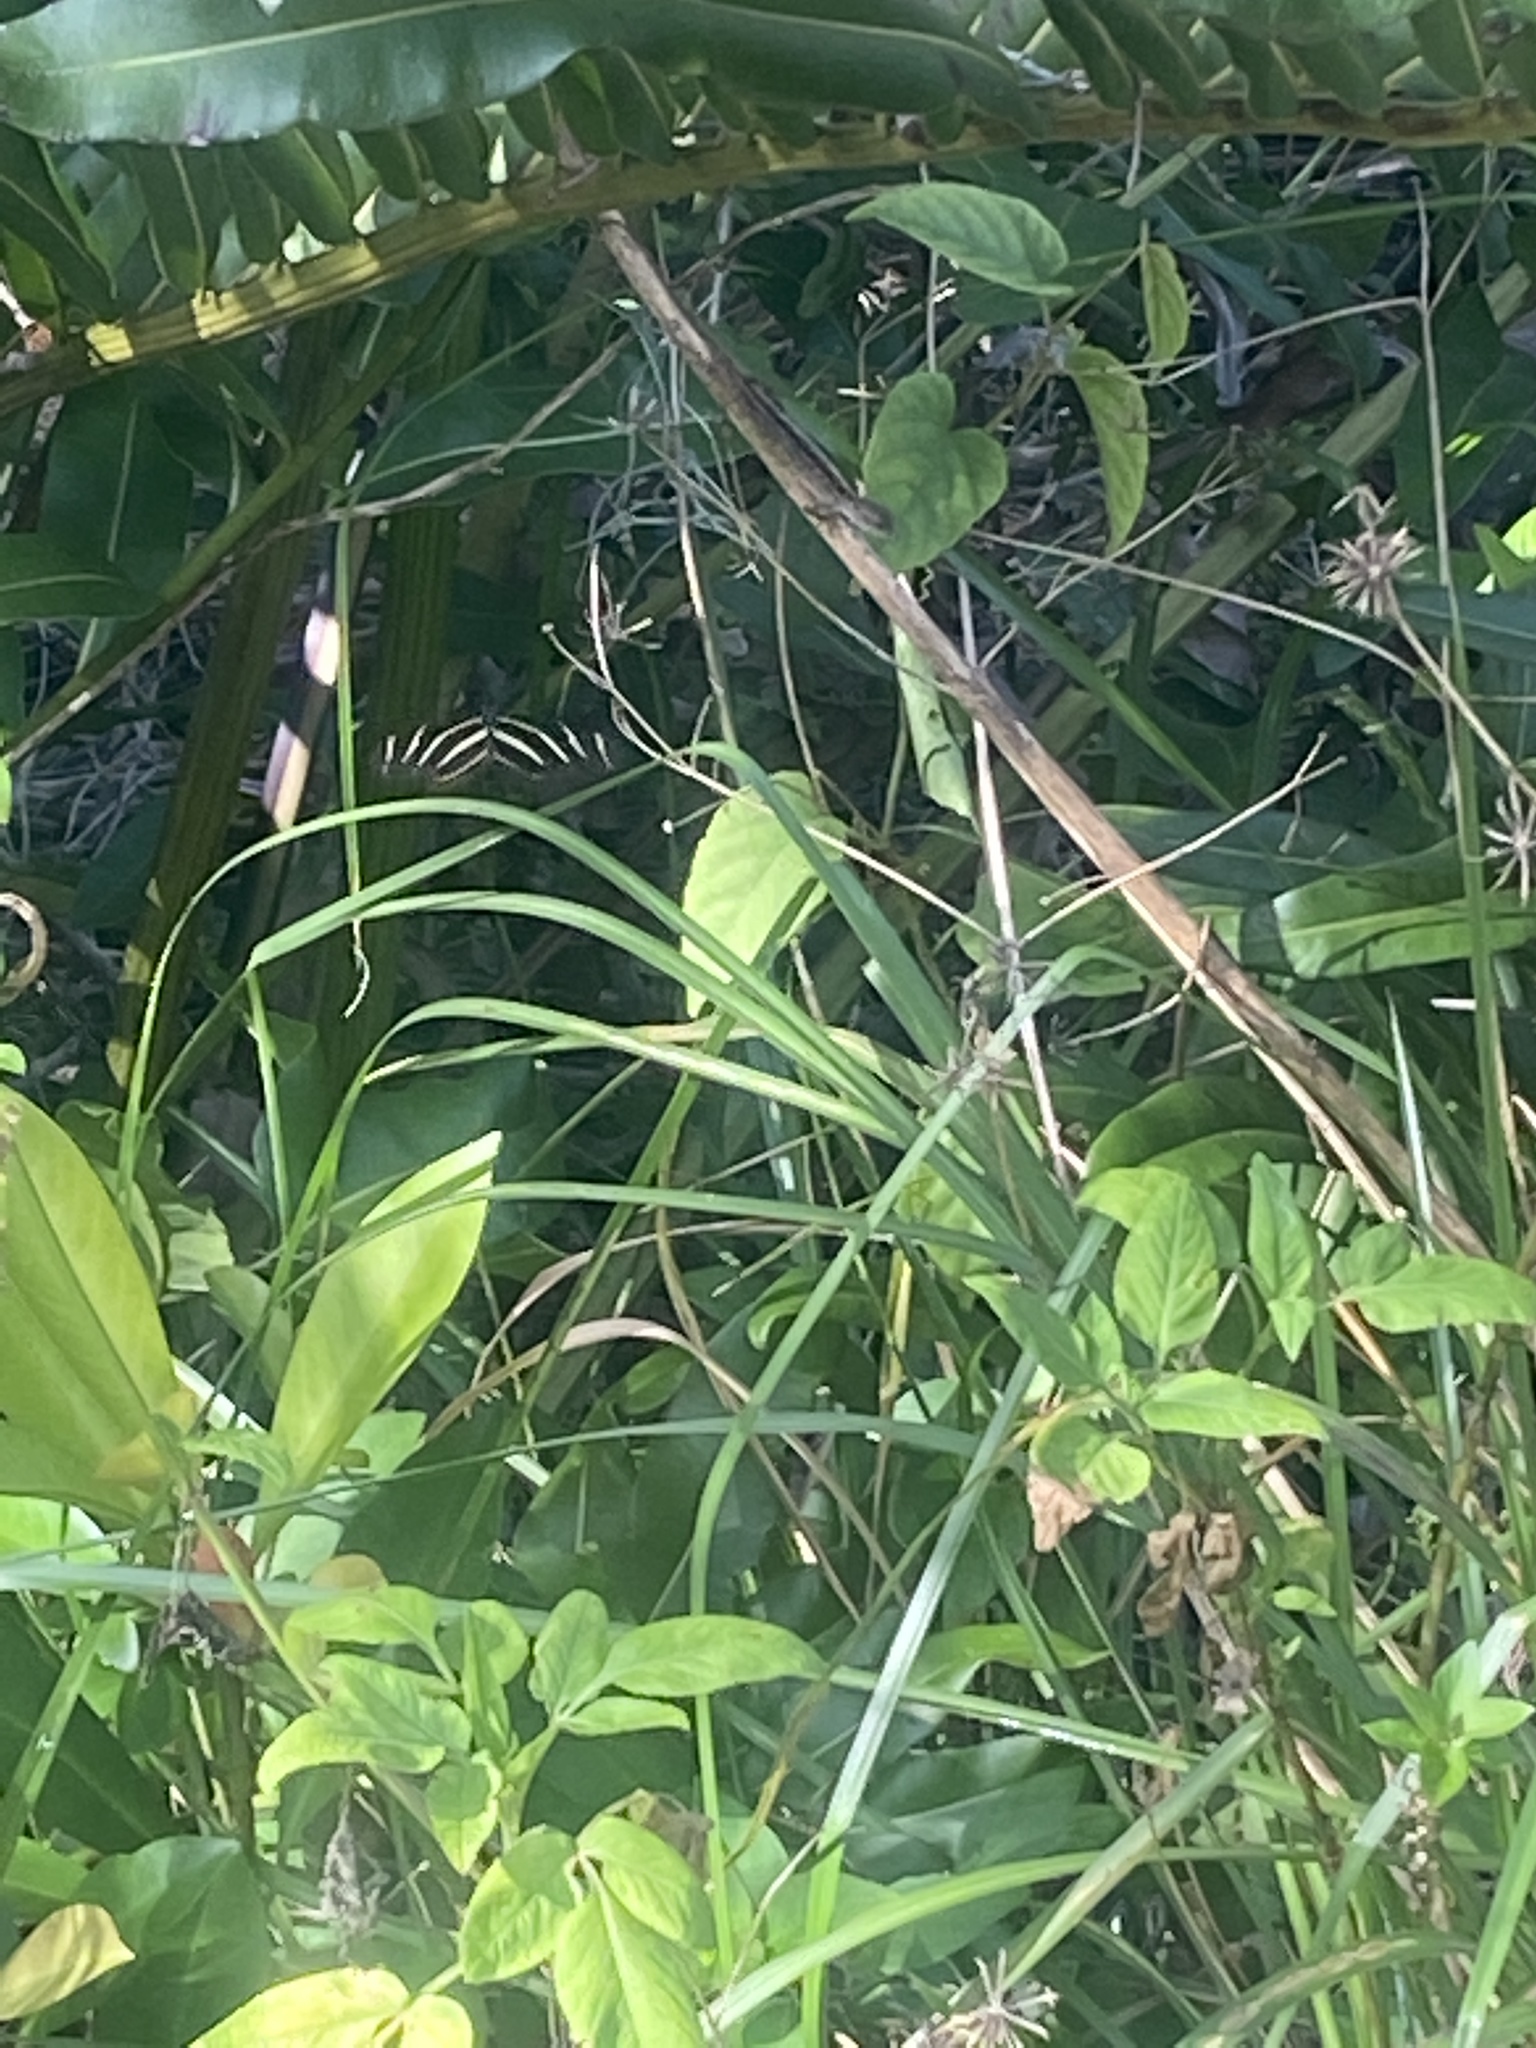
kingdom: Animalia
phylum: Arthropoda
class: Insecta
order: Lepidoptera
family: Nymphalidae
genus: Heliconius
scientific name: Heliconius charithonia
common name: Zebra long wing
